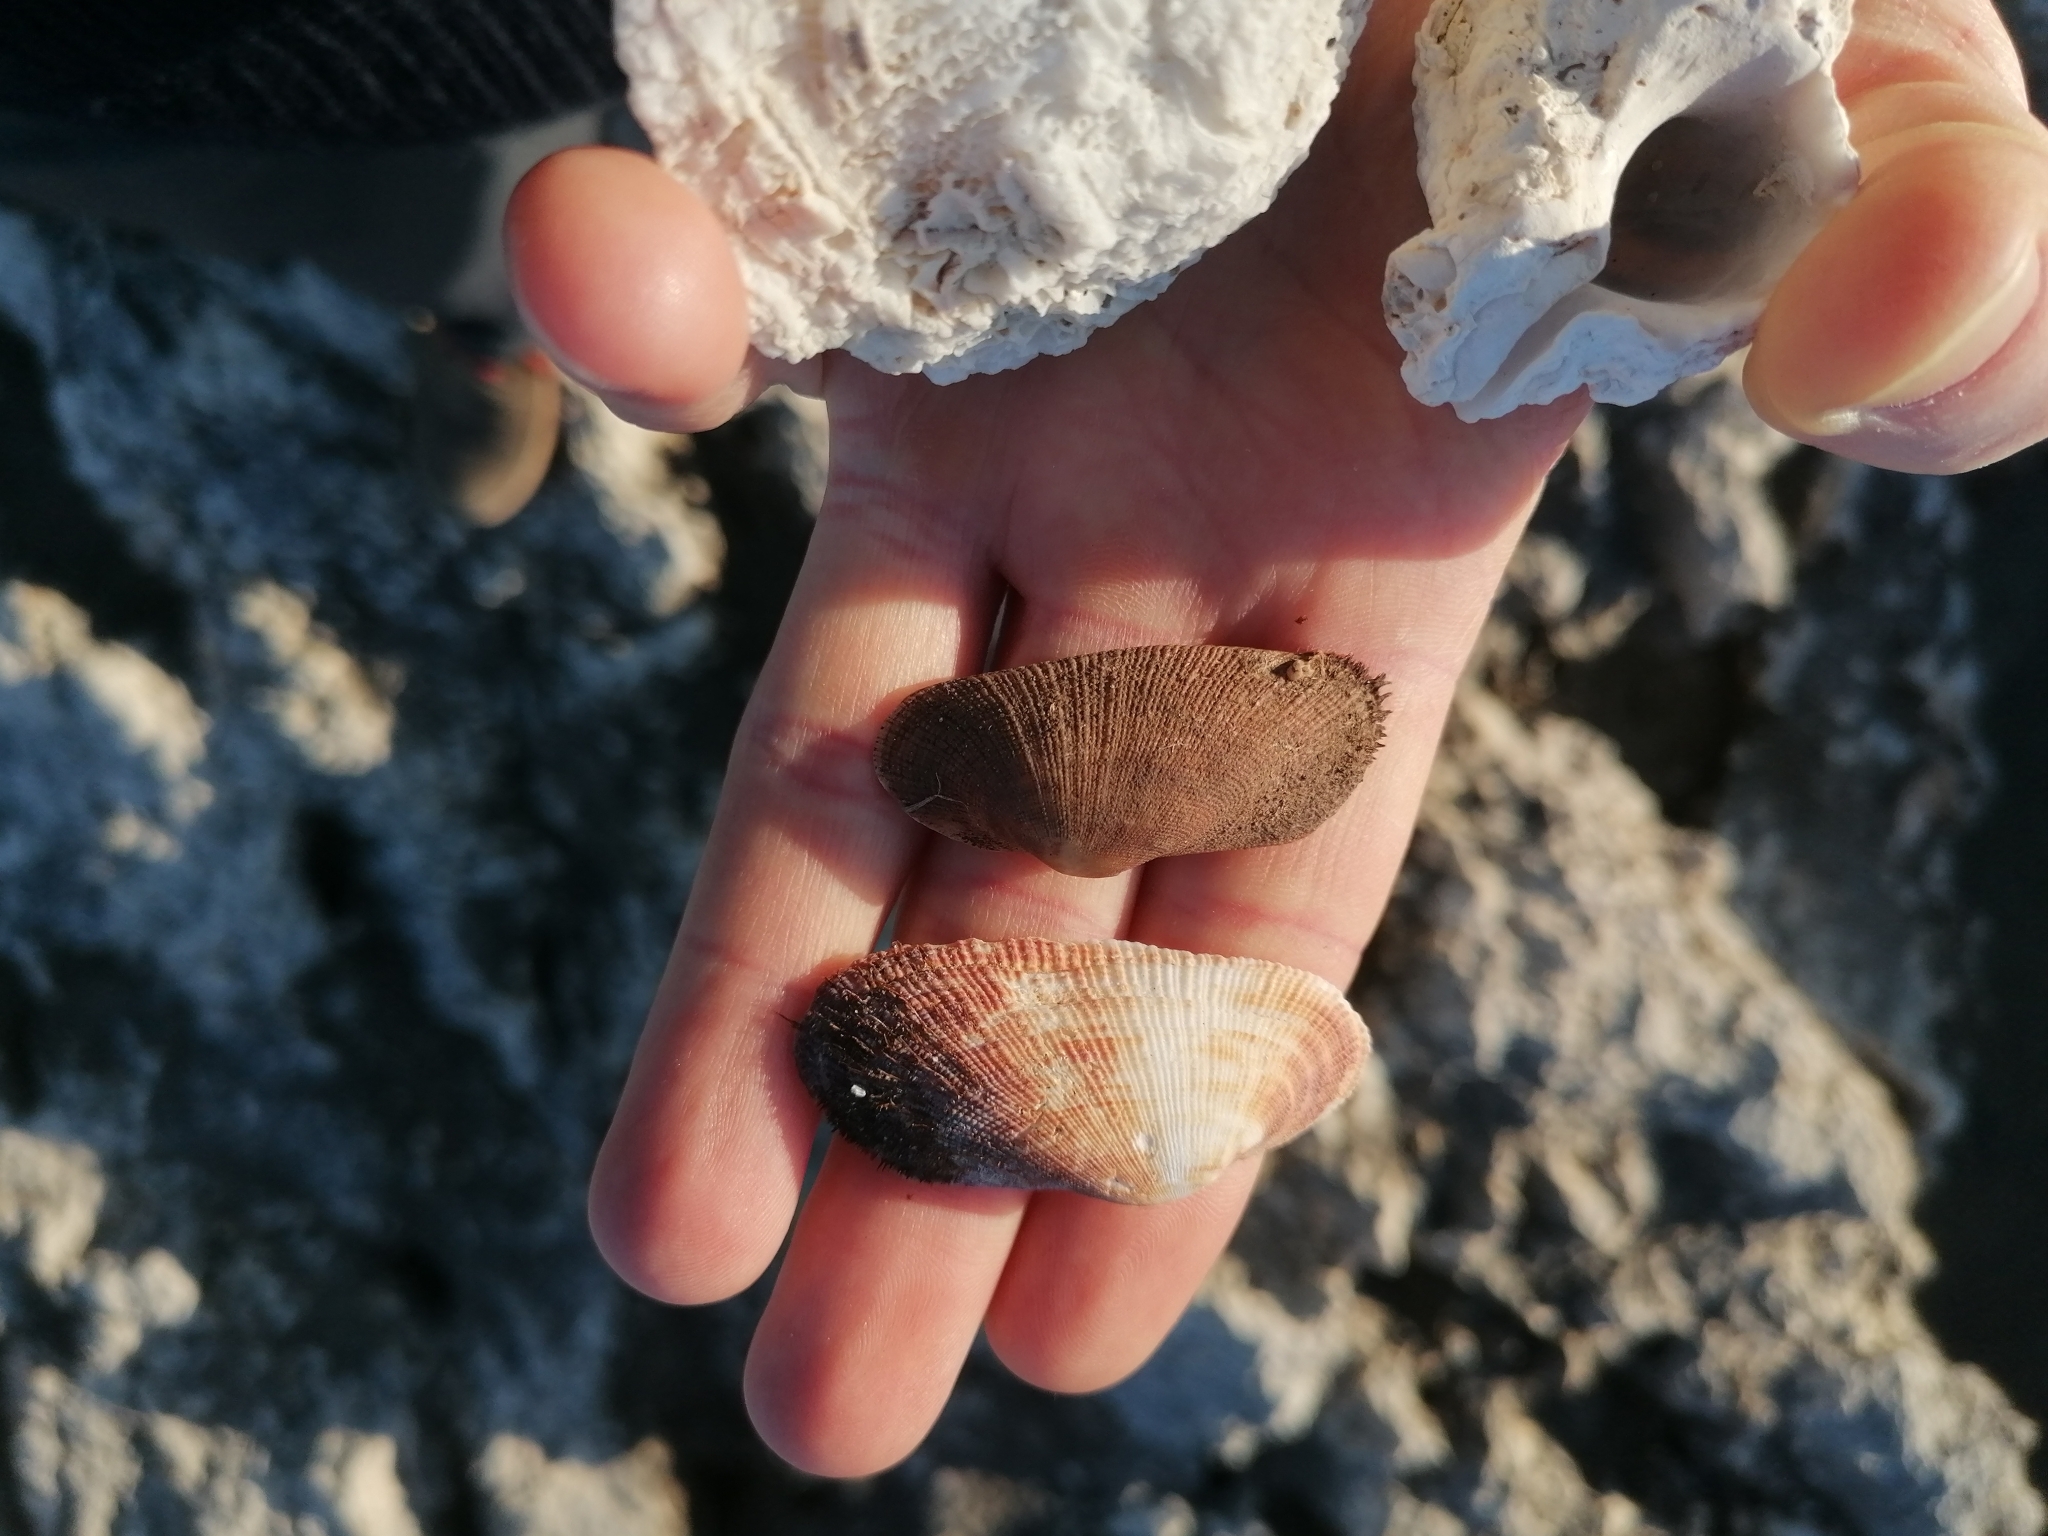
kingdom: Animalia
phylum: Mollusca
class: Bivalvia
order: Arcida
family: Arcidae
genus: Barbatia
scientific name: Barbatia barbata
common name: Bearded ark
